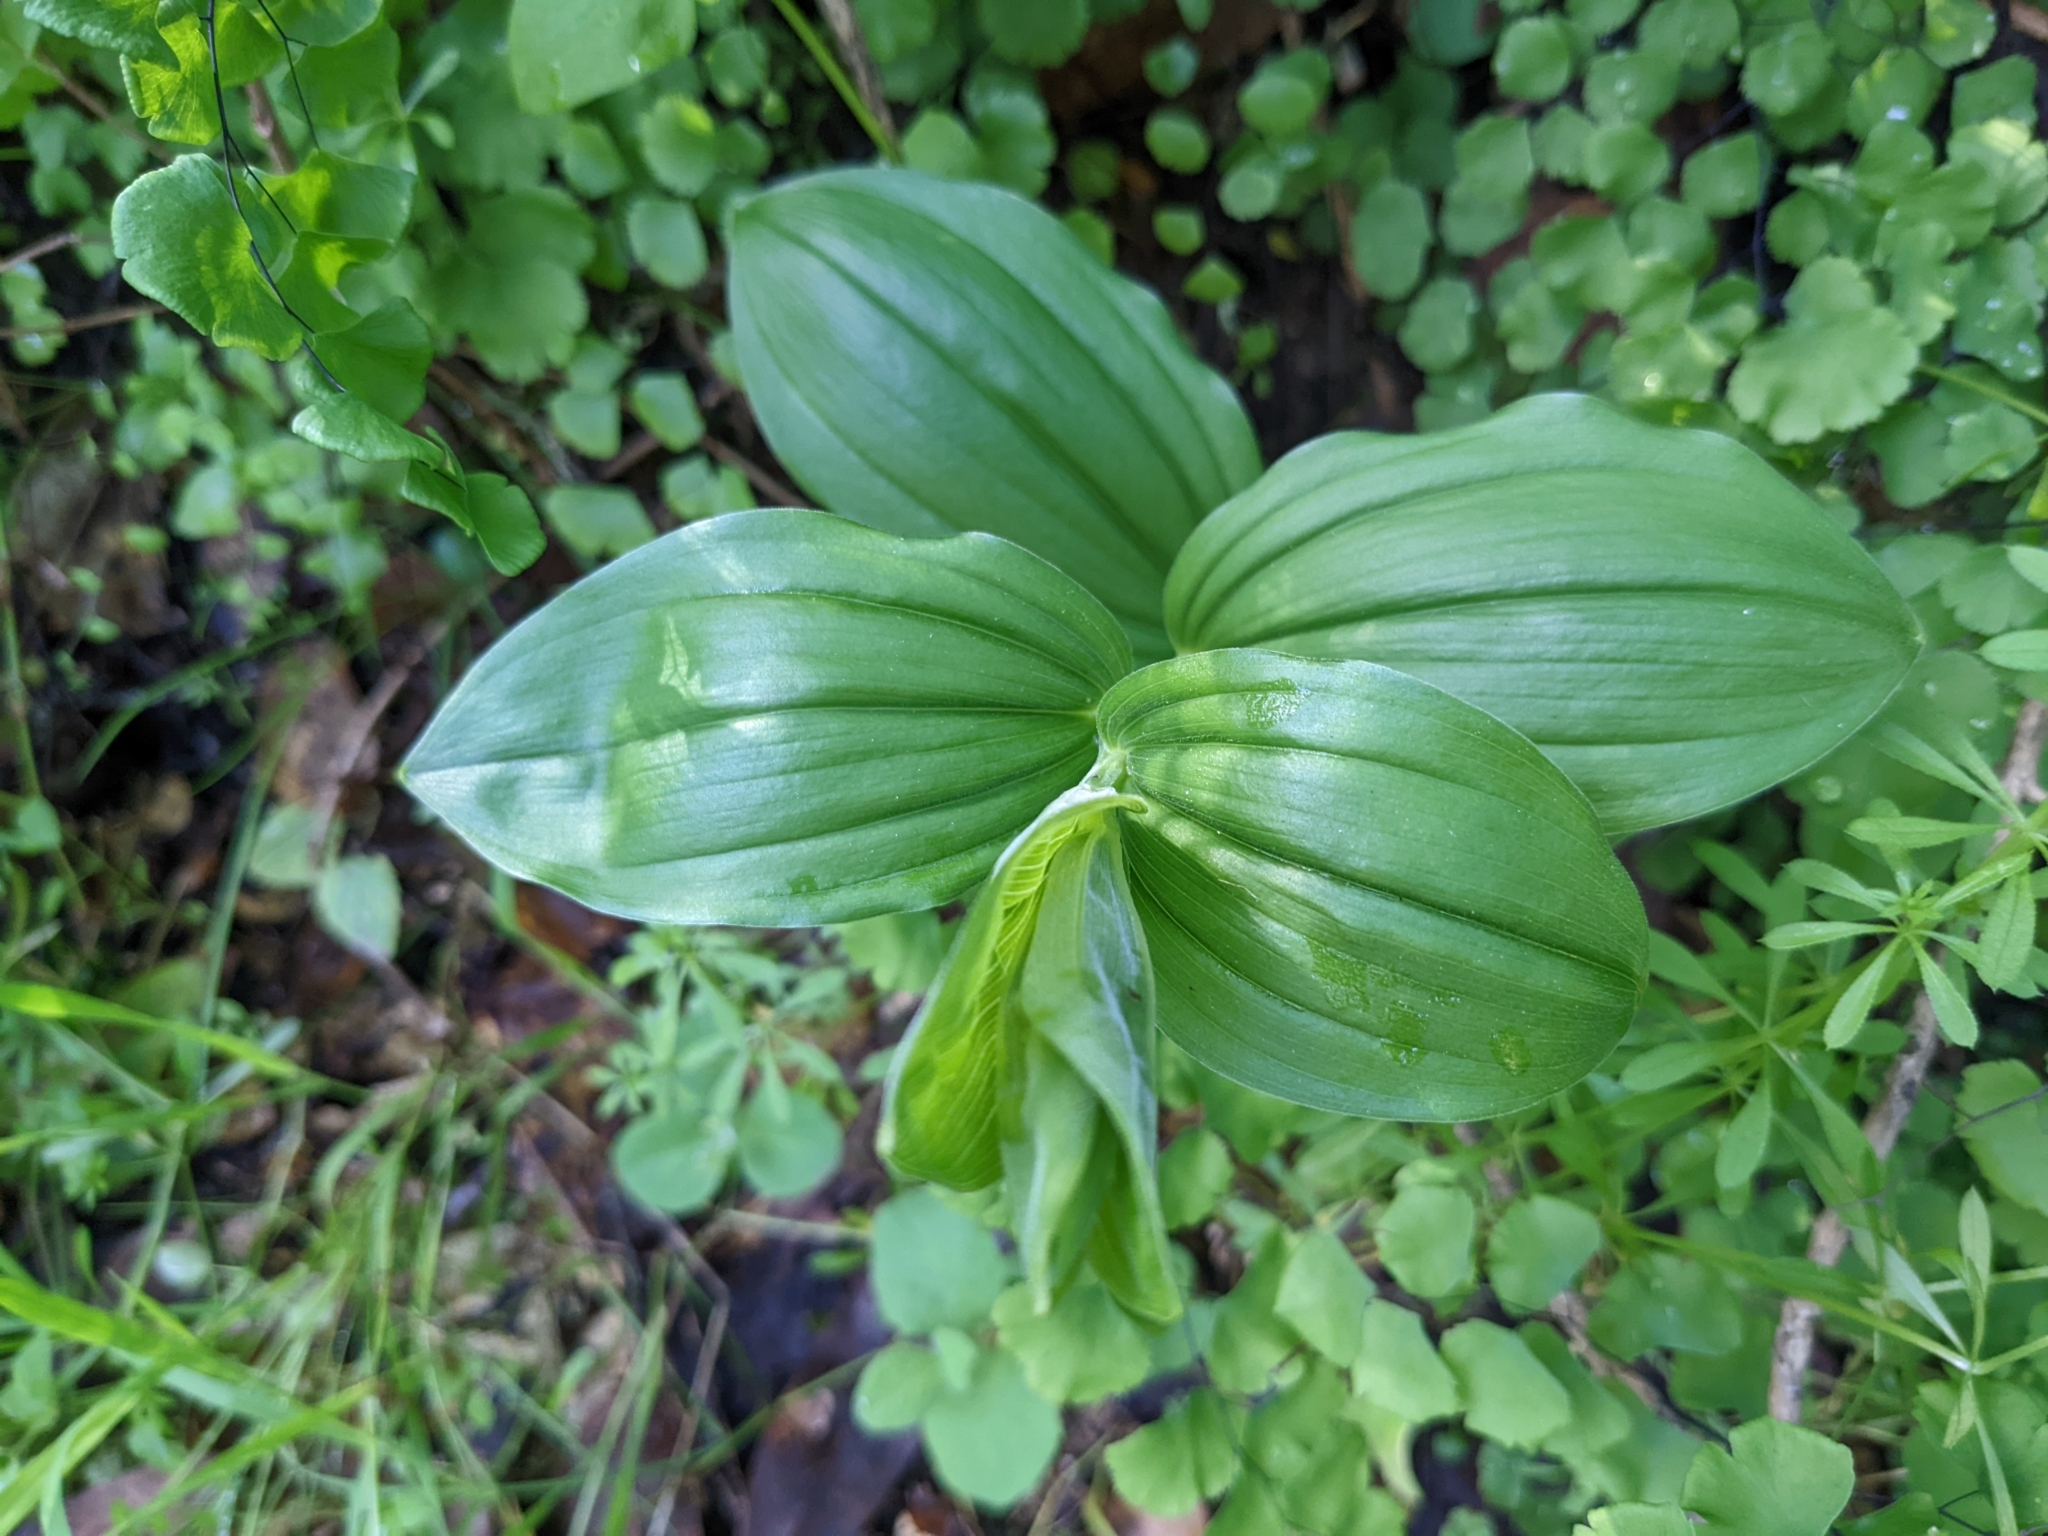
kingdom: Plantae
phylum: Tracheophyta
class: Liliopsida
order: Asparagales
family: Asparagaceae
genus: Maianthemum
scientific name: Maianthemum racemosum
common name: False spikenard
